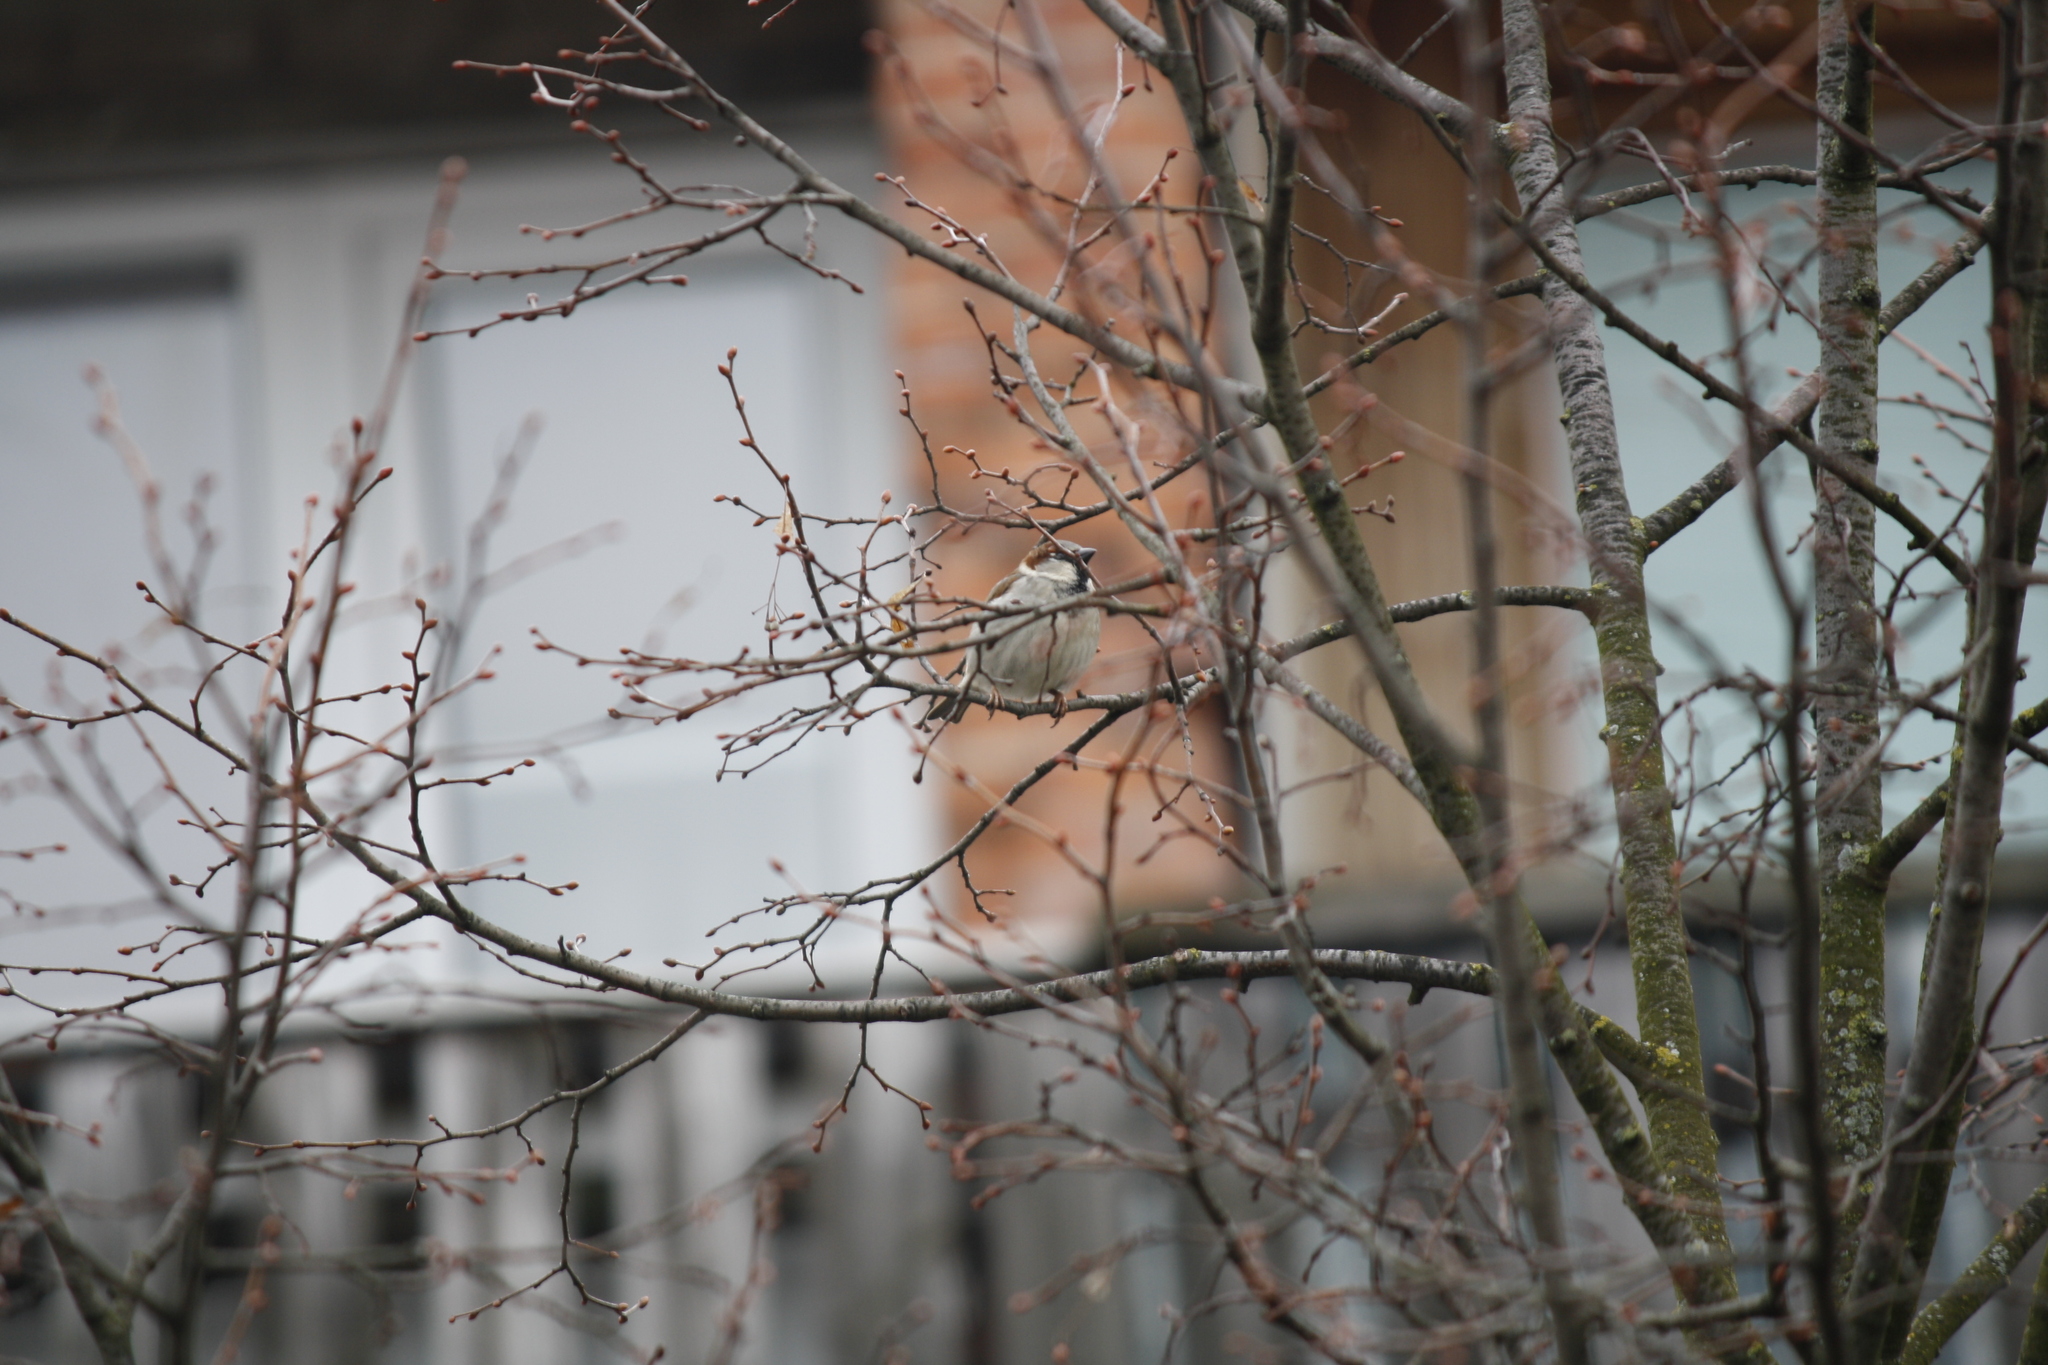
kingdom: Animalia
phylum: Chordata
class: Aves
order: Passeriformes
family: Passeridae
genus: Passer
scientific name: Passer domesticus
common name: House sparrow
